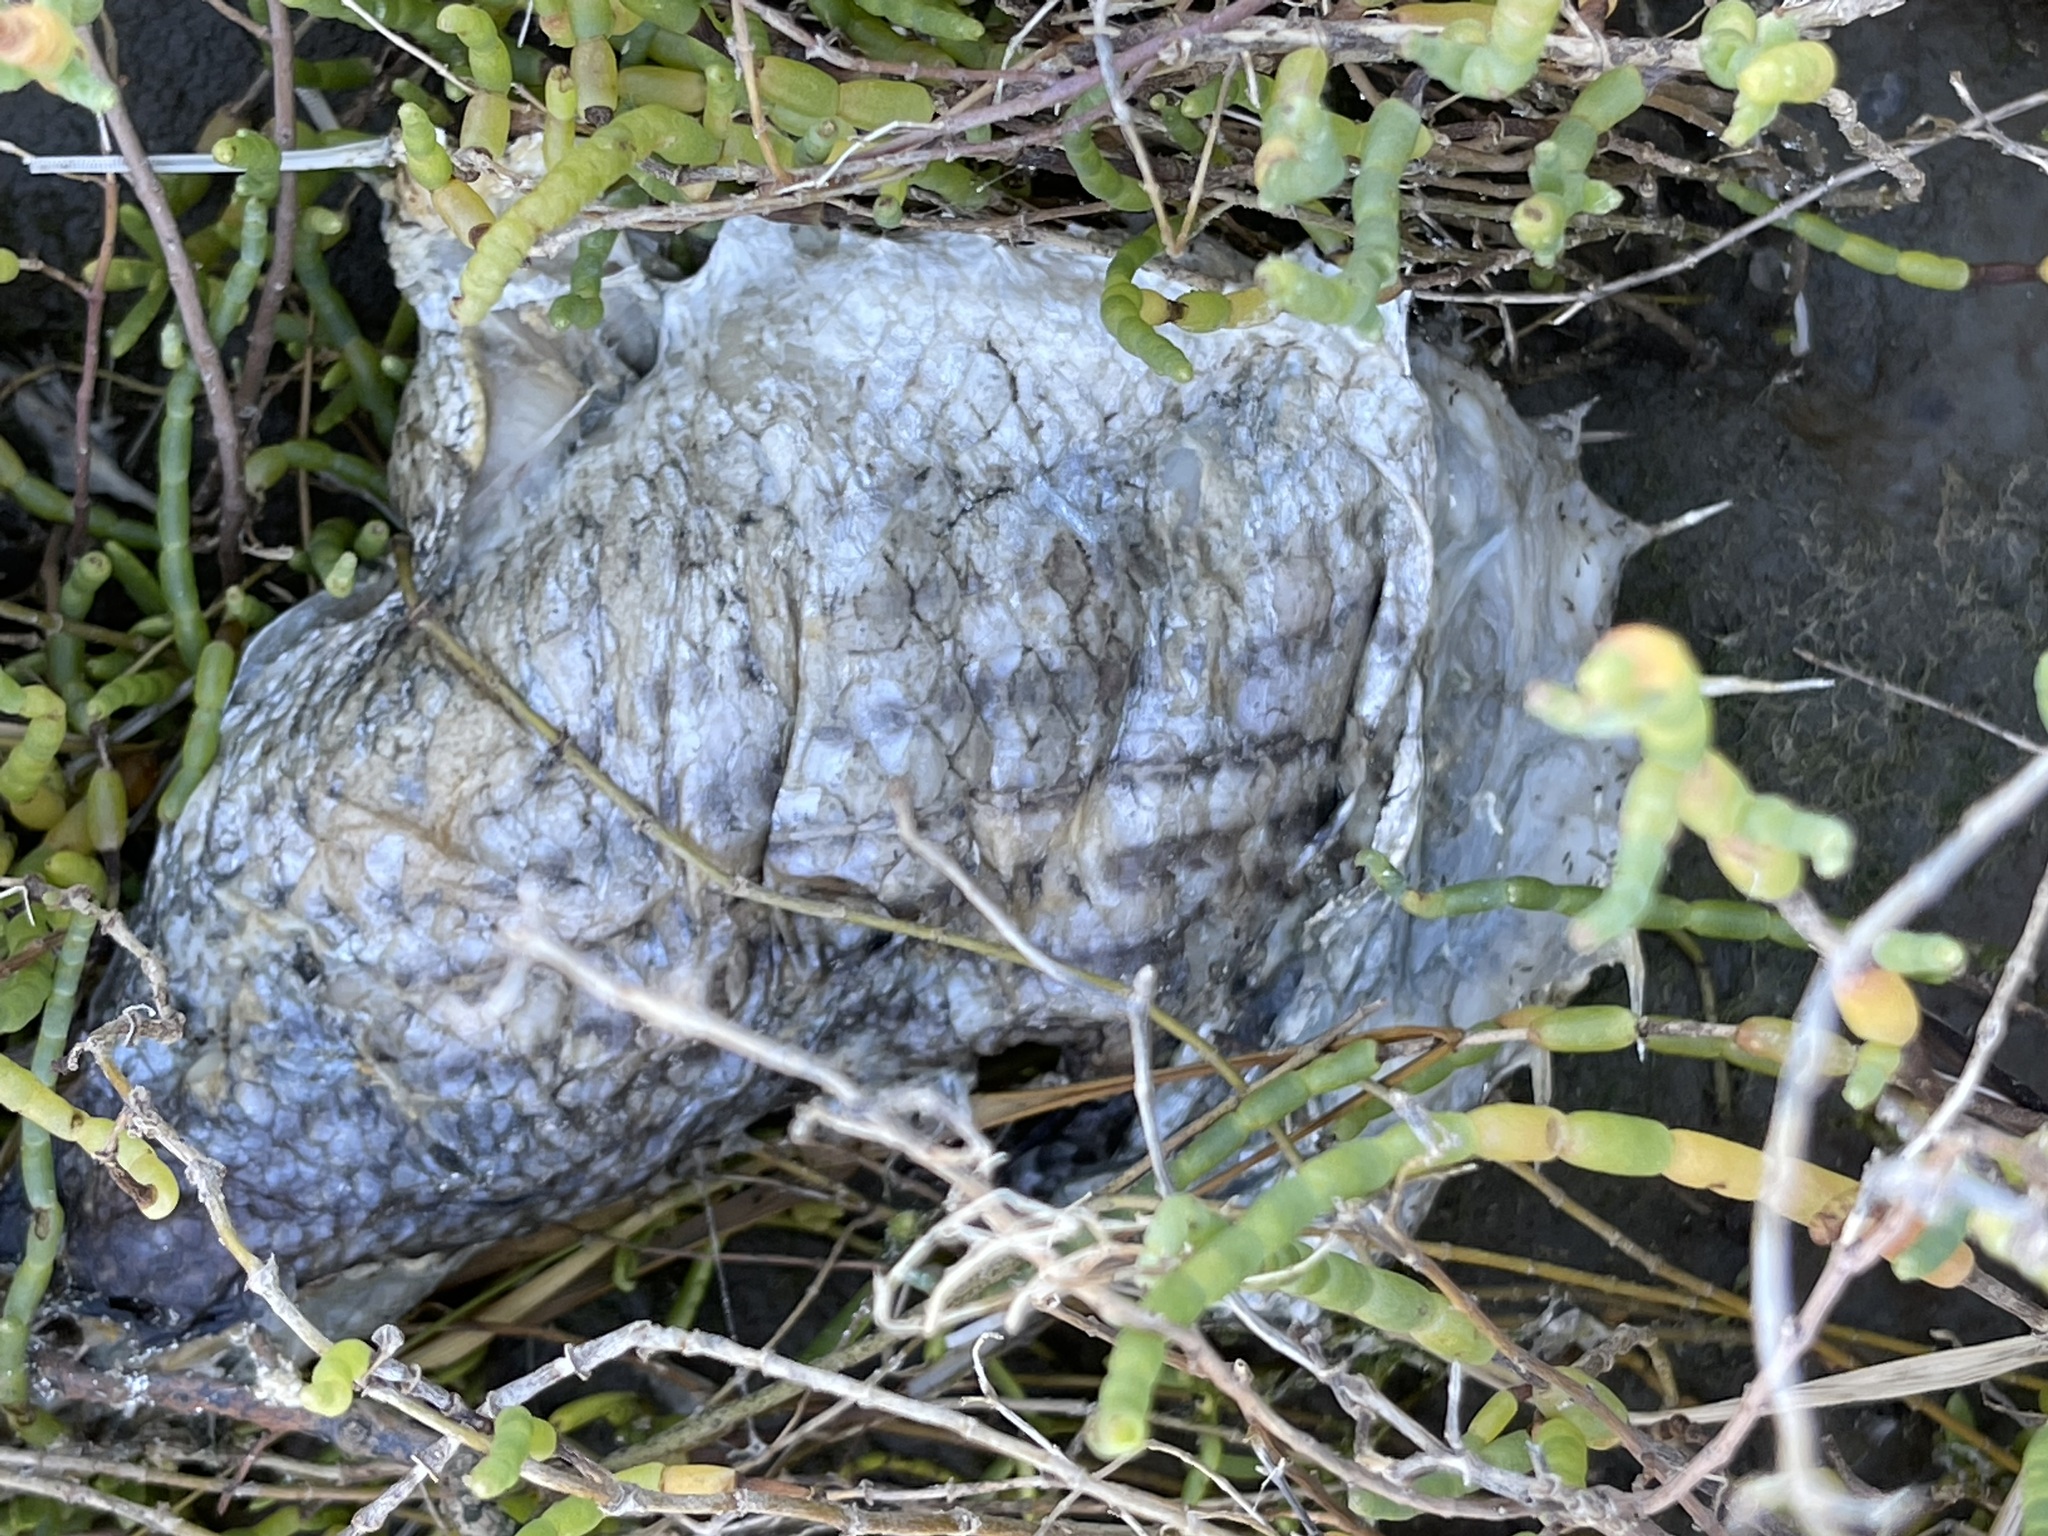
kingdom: Animalia
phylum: Chordata
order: Perciformes
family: Moronidae
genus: Morone
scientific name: Morone saxatilis
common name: Striped bass
